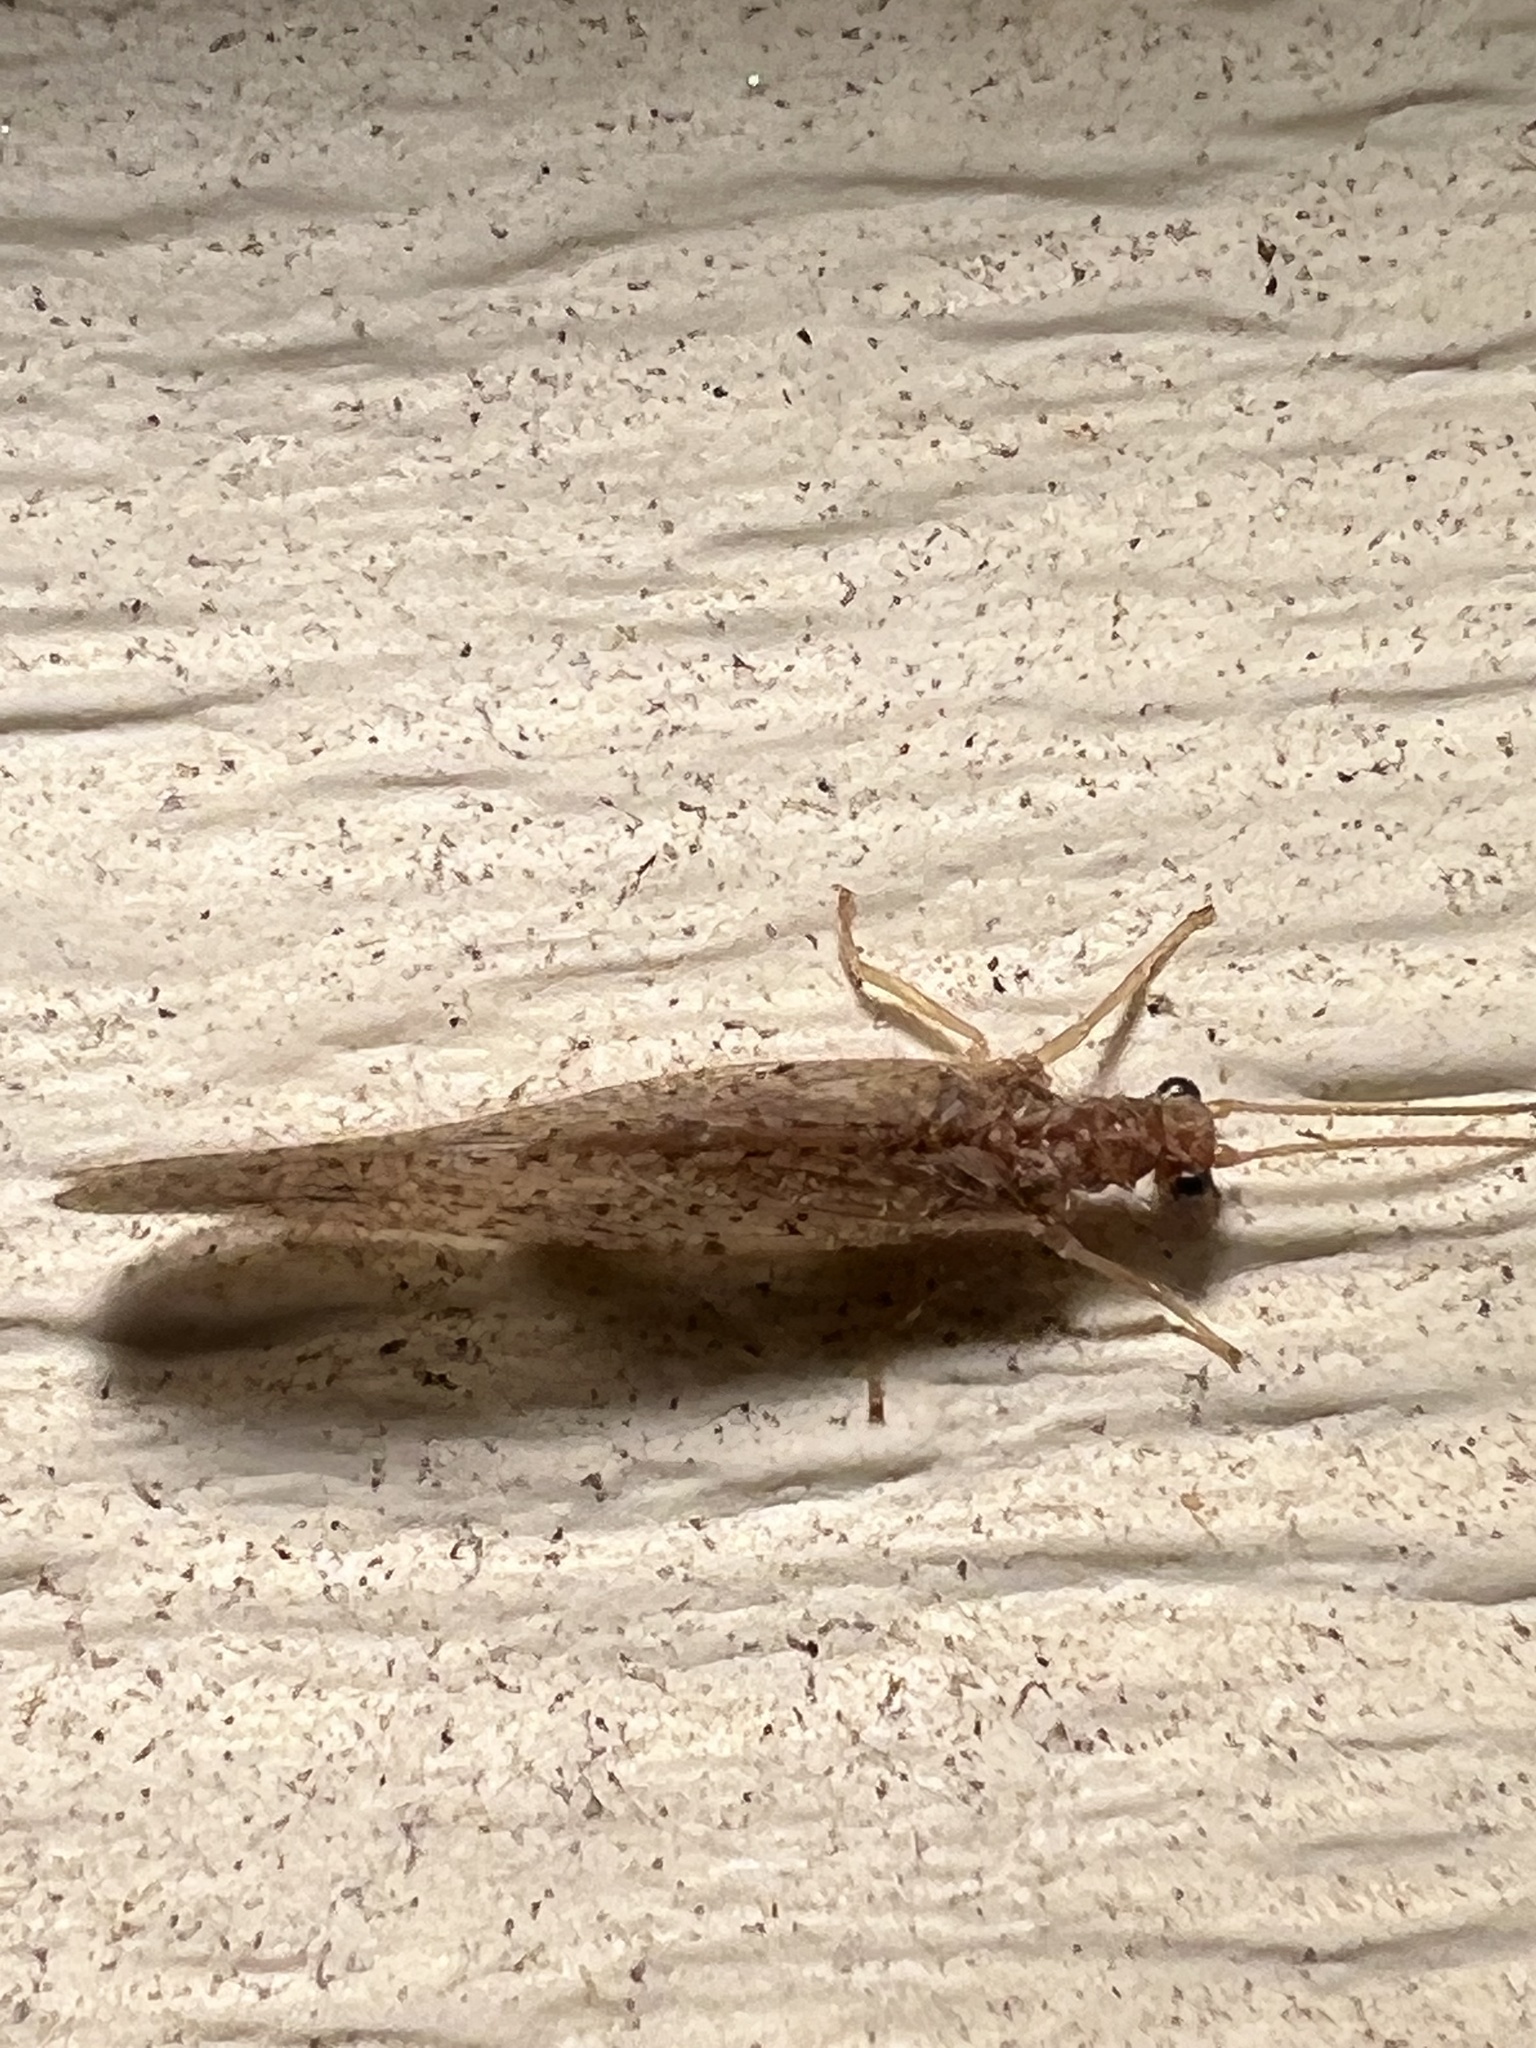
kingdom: Animalia
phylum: Arthropoda
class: Insecta
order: Neuroptera
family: Hemerobiidae
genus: Micromus
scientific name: Micromus subanticus
